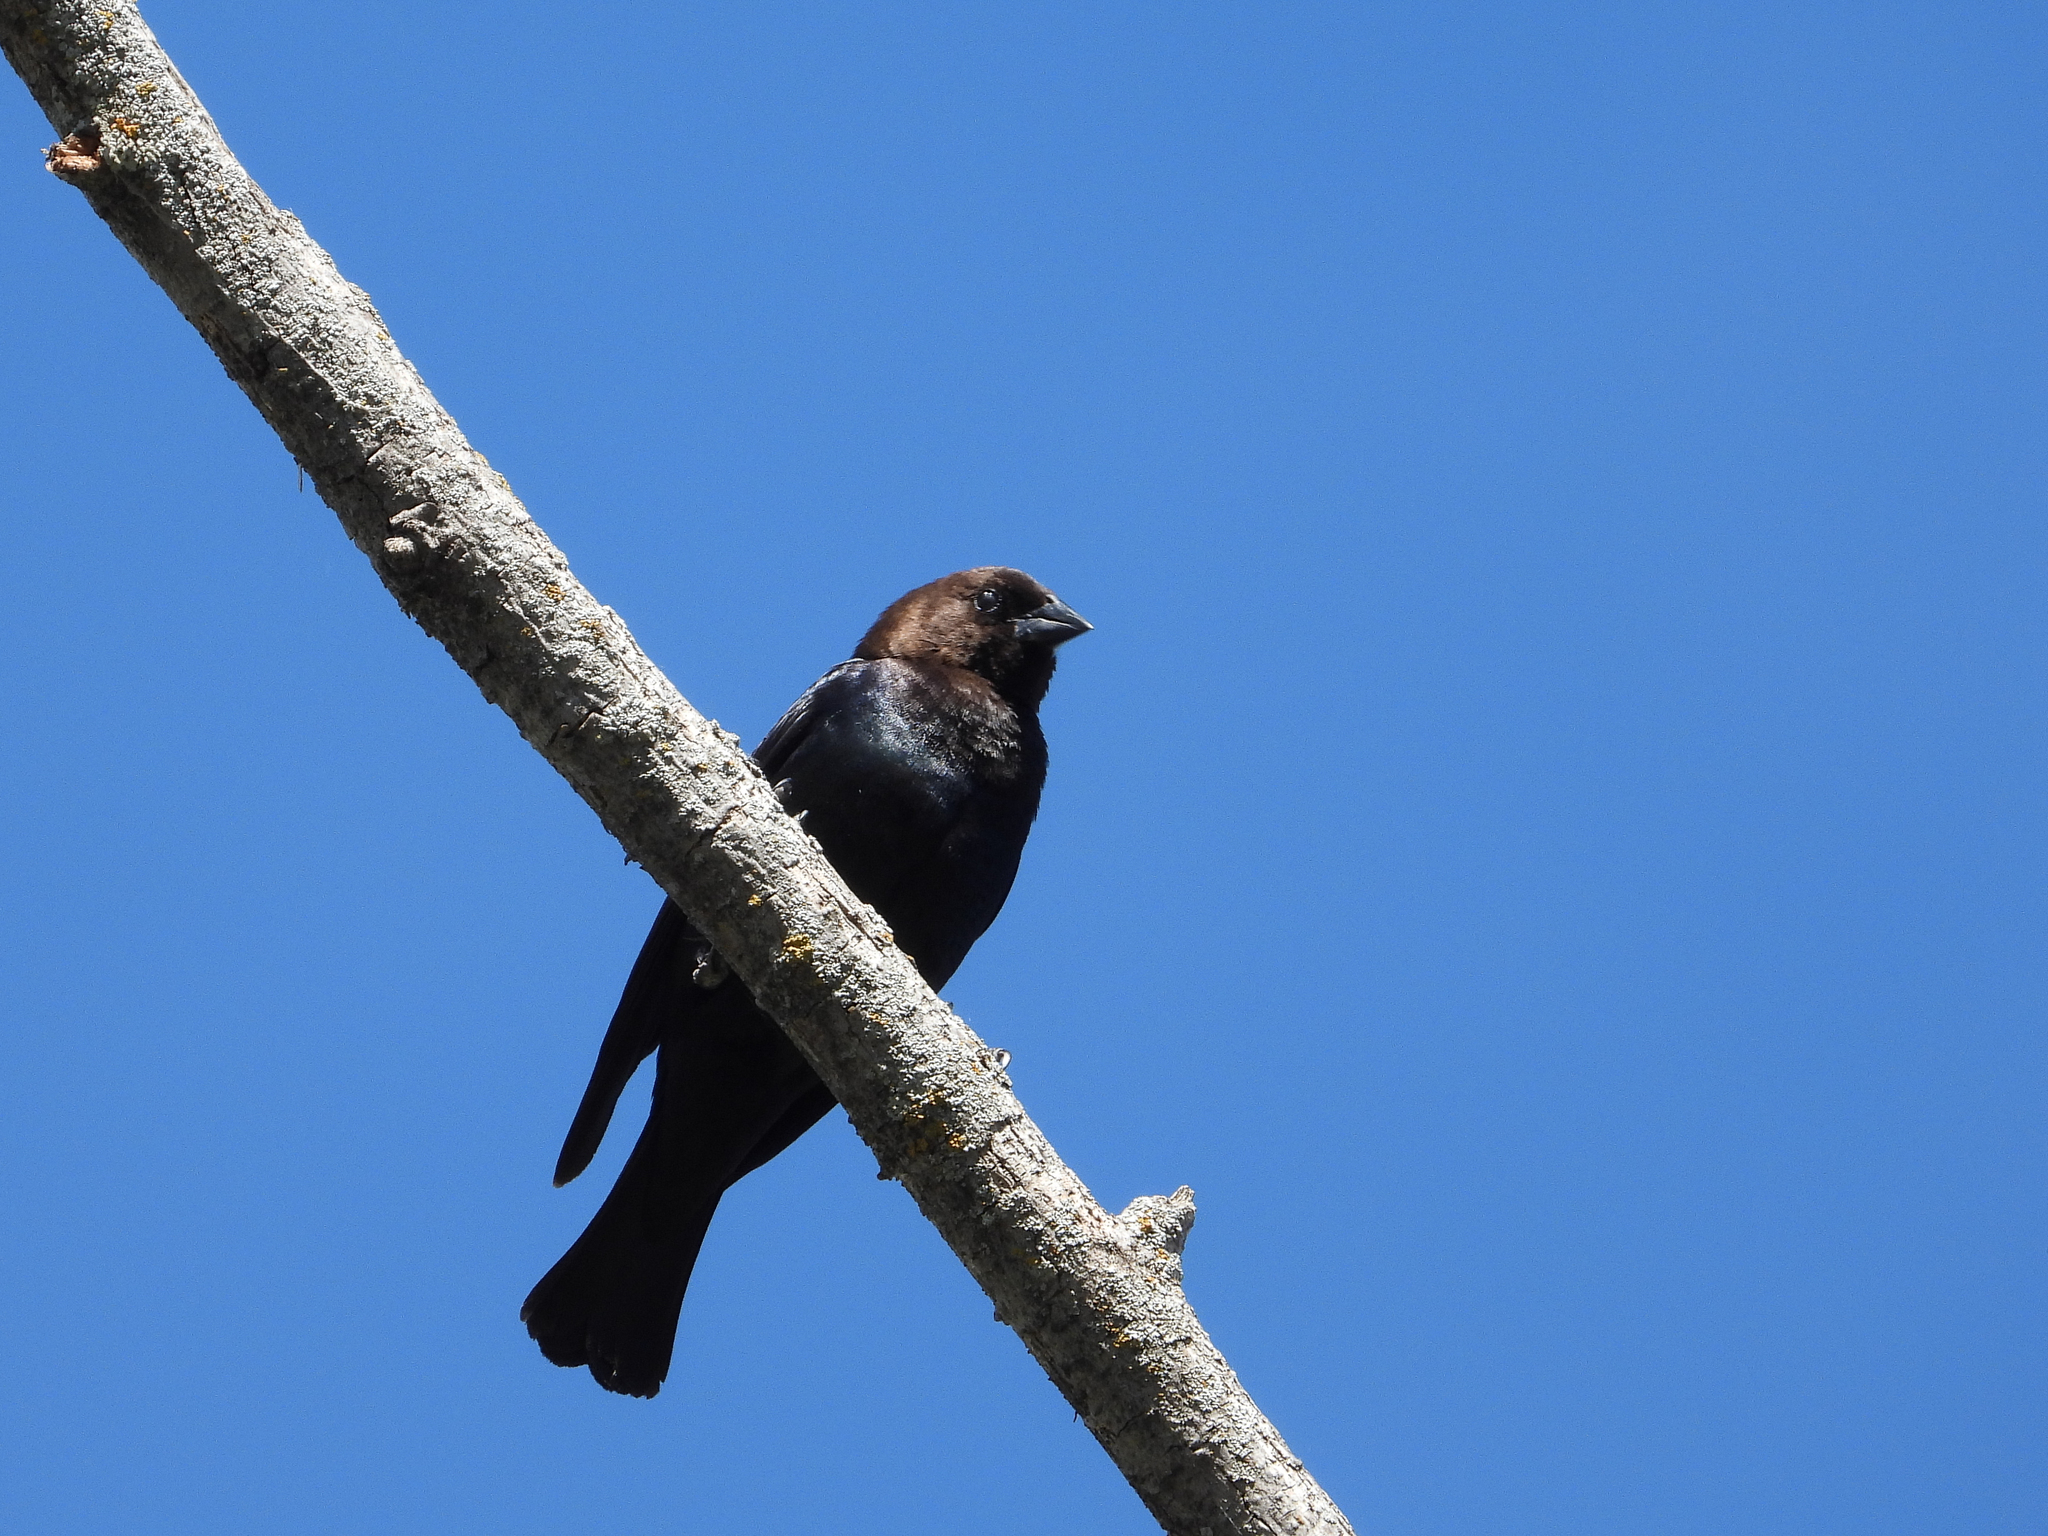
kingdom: Animalia
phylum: Chordata
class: Aves
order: Passeriformes
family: Icteridae
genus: Molothrus
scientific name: Molothrus ater
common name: Brown-headed cowbird
